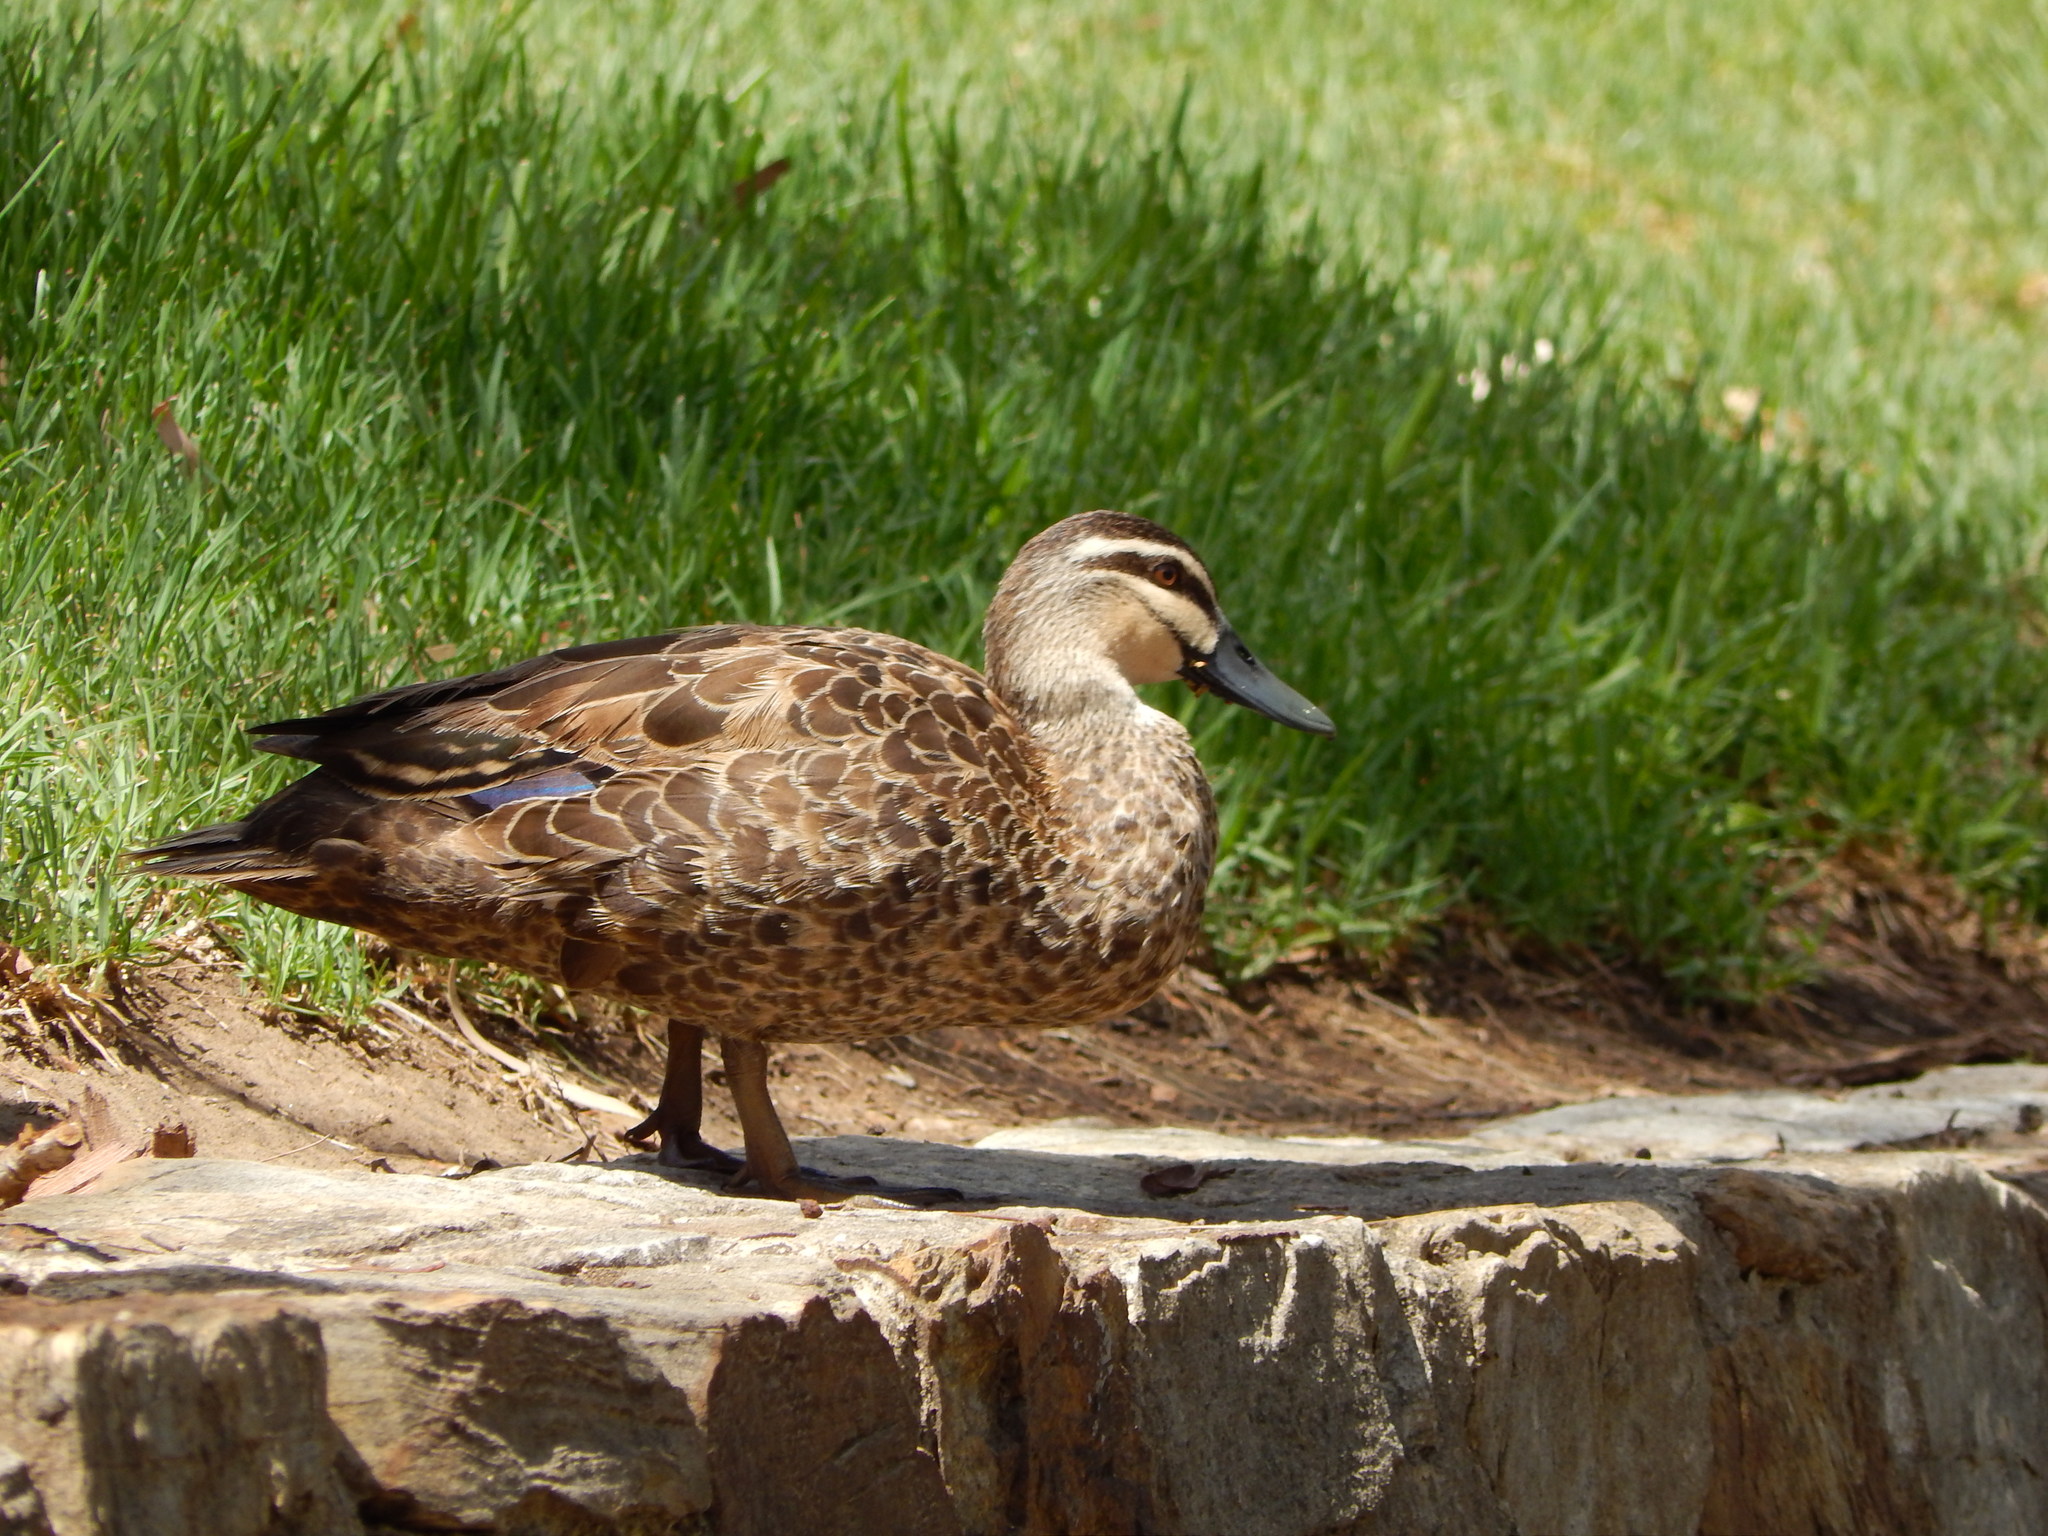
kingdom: Animalia
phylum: Chordata
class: Aves
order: Anseriformes
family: Anatidae
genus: Anas
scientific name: Anas superciliosa
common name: Pacific black duck
